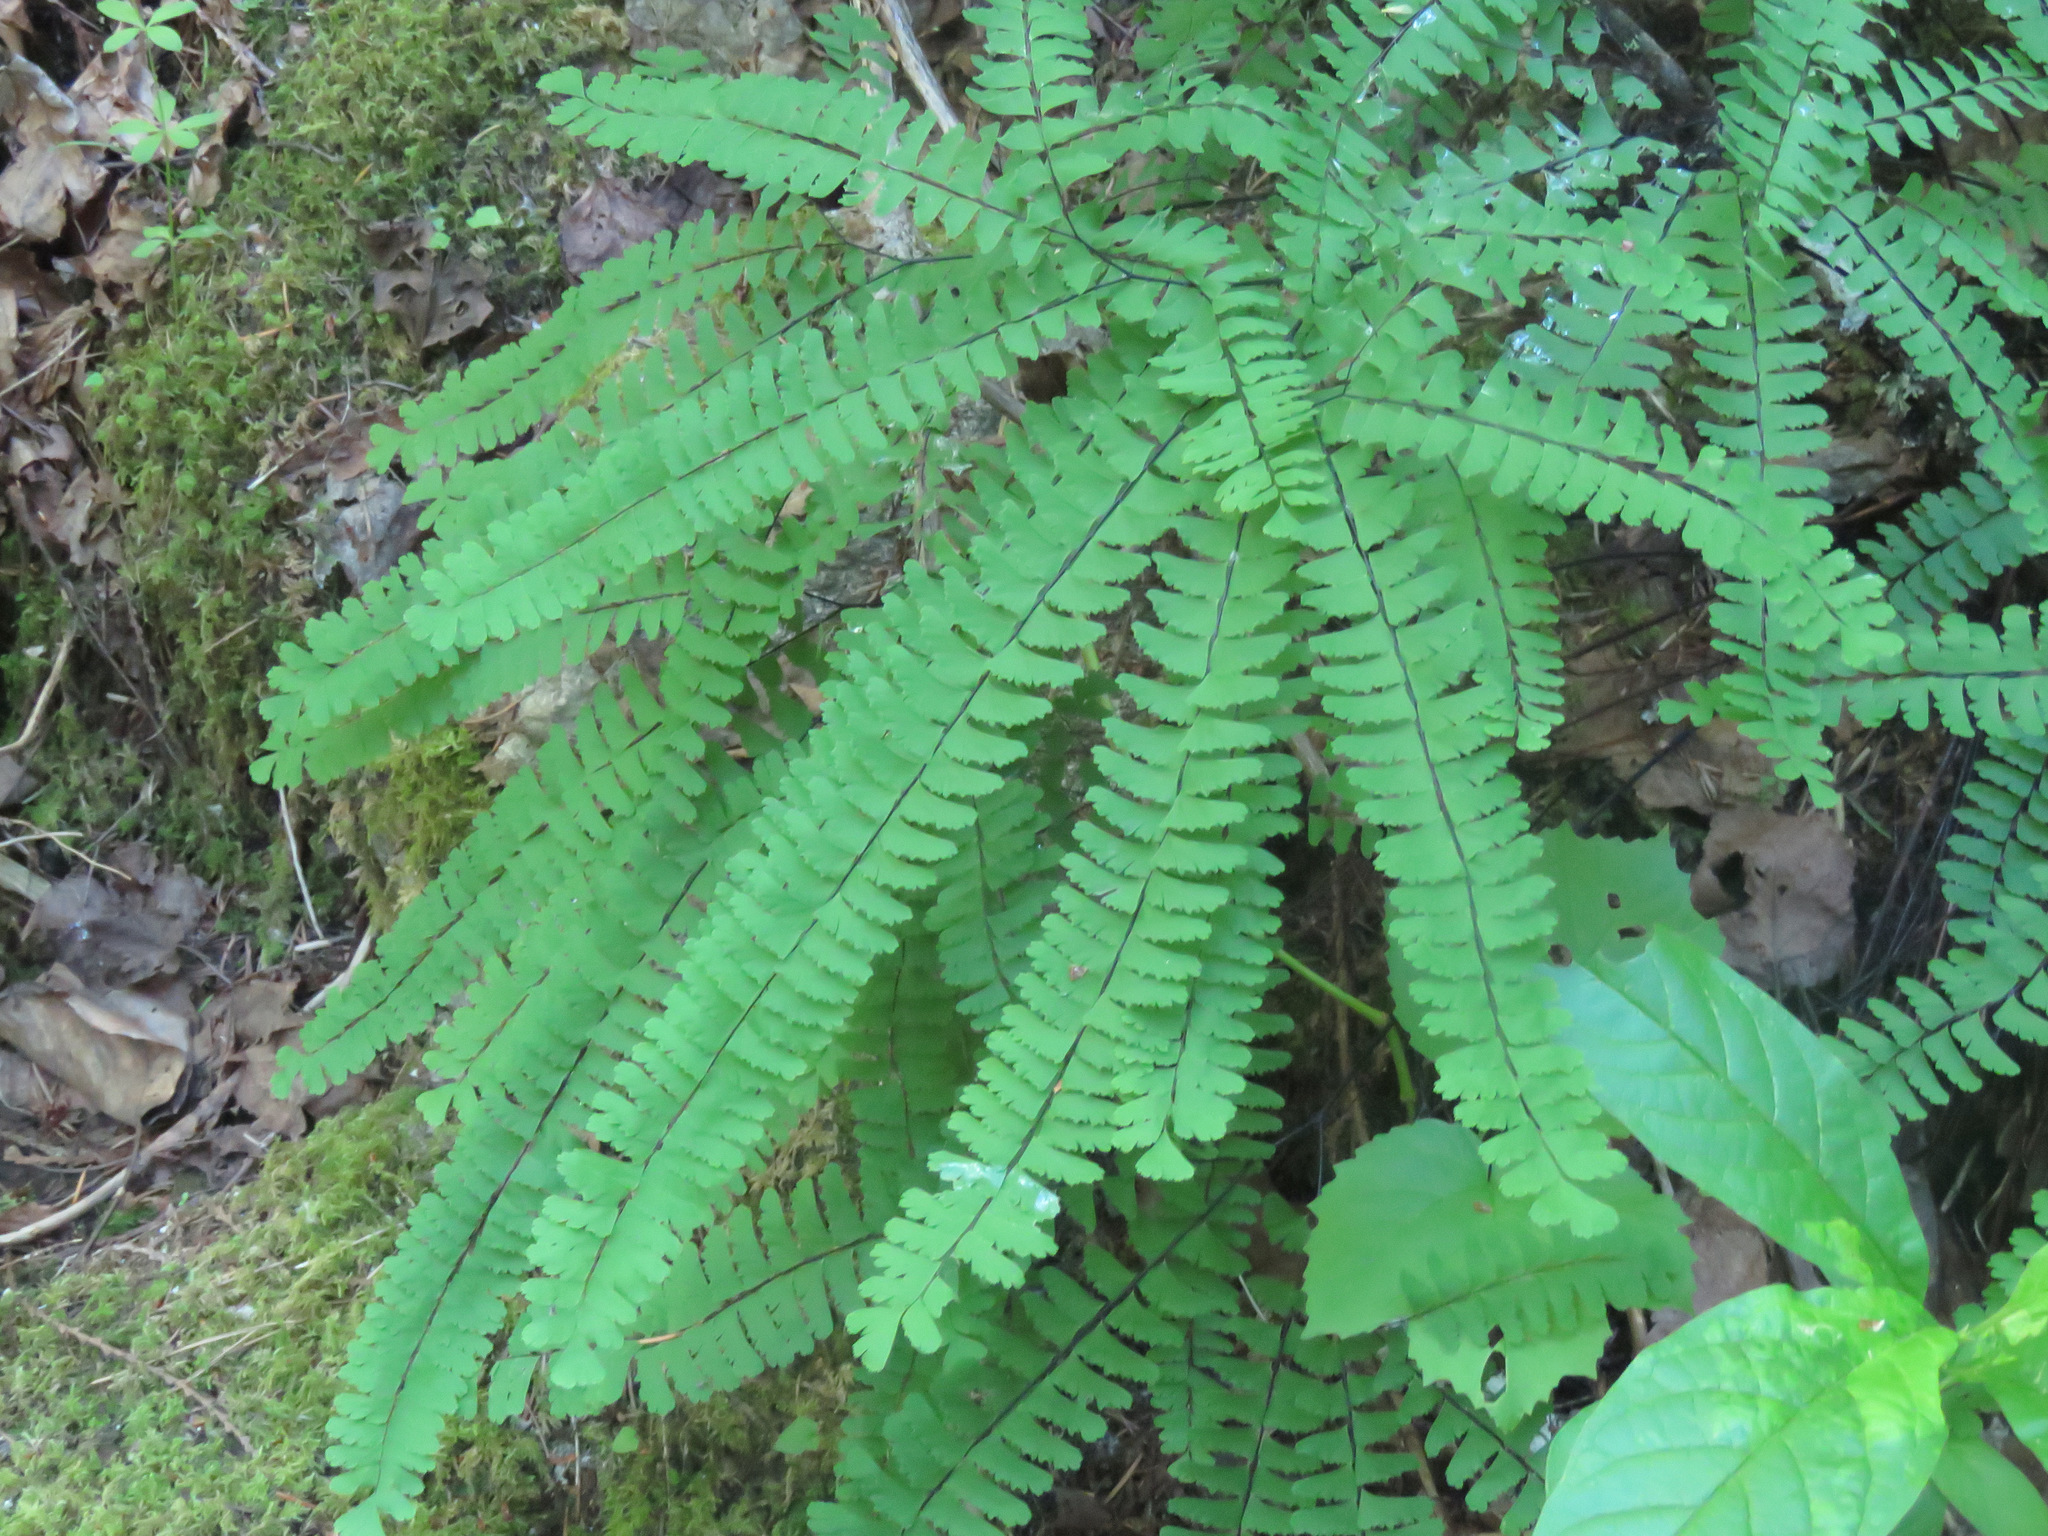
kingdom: Plantae
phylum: Tracheophyta
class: Polypodiopsida
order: Polypodiales
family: Pteridaceae
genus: Adiantum
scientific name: Adiantum aleuticum
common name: Aleutian maidenhair fern
